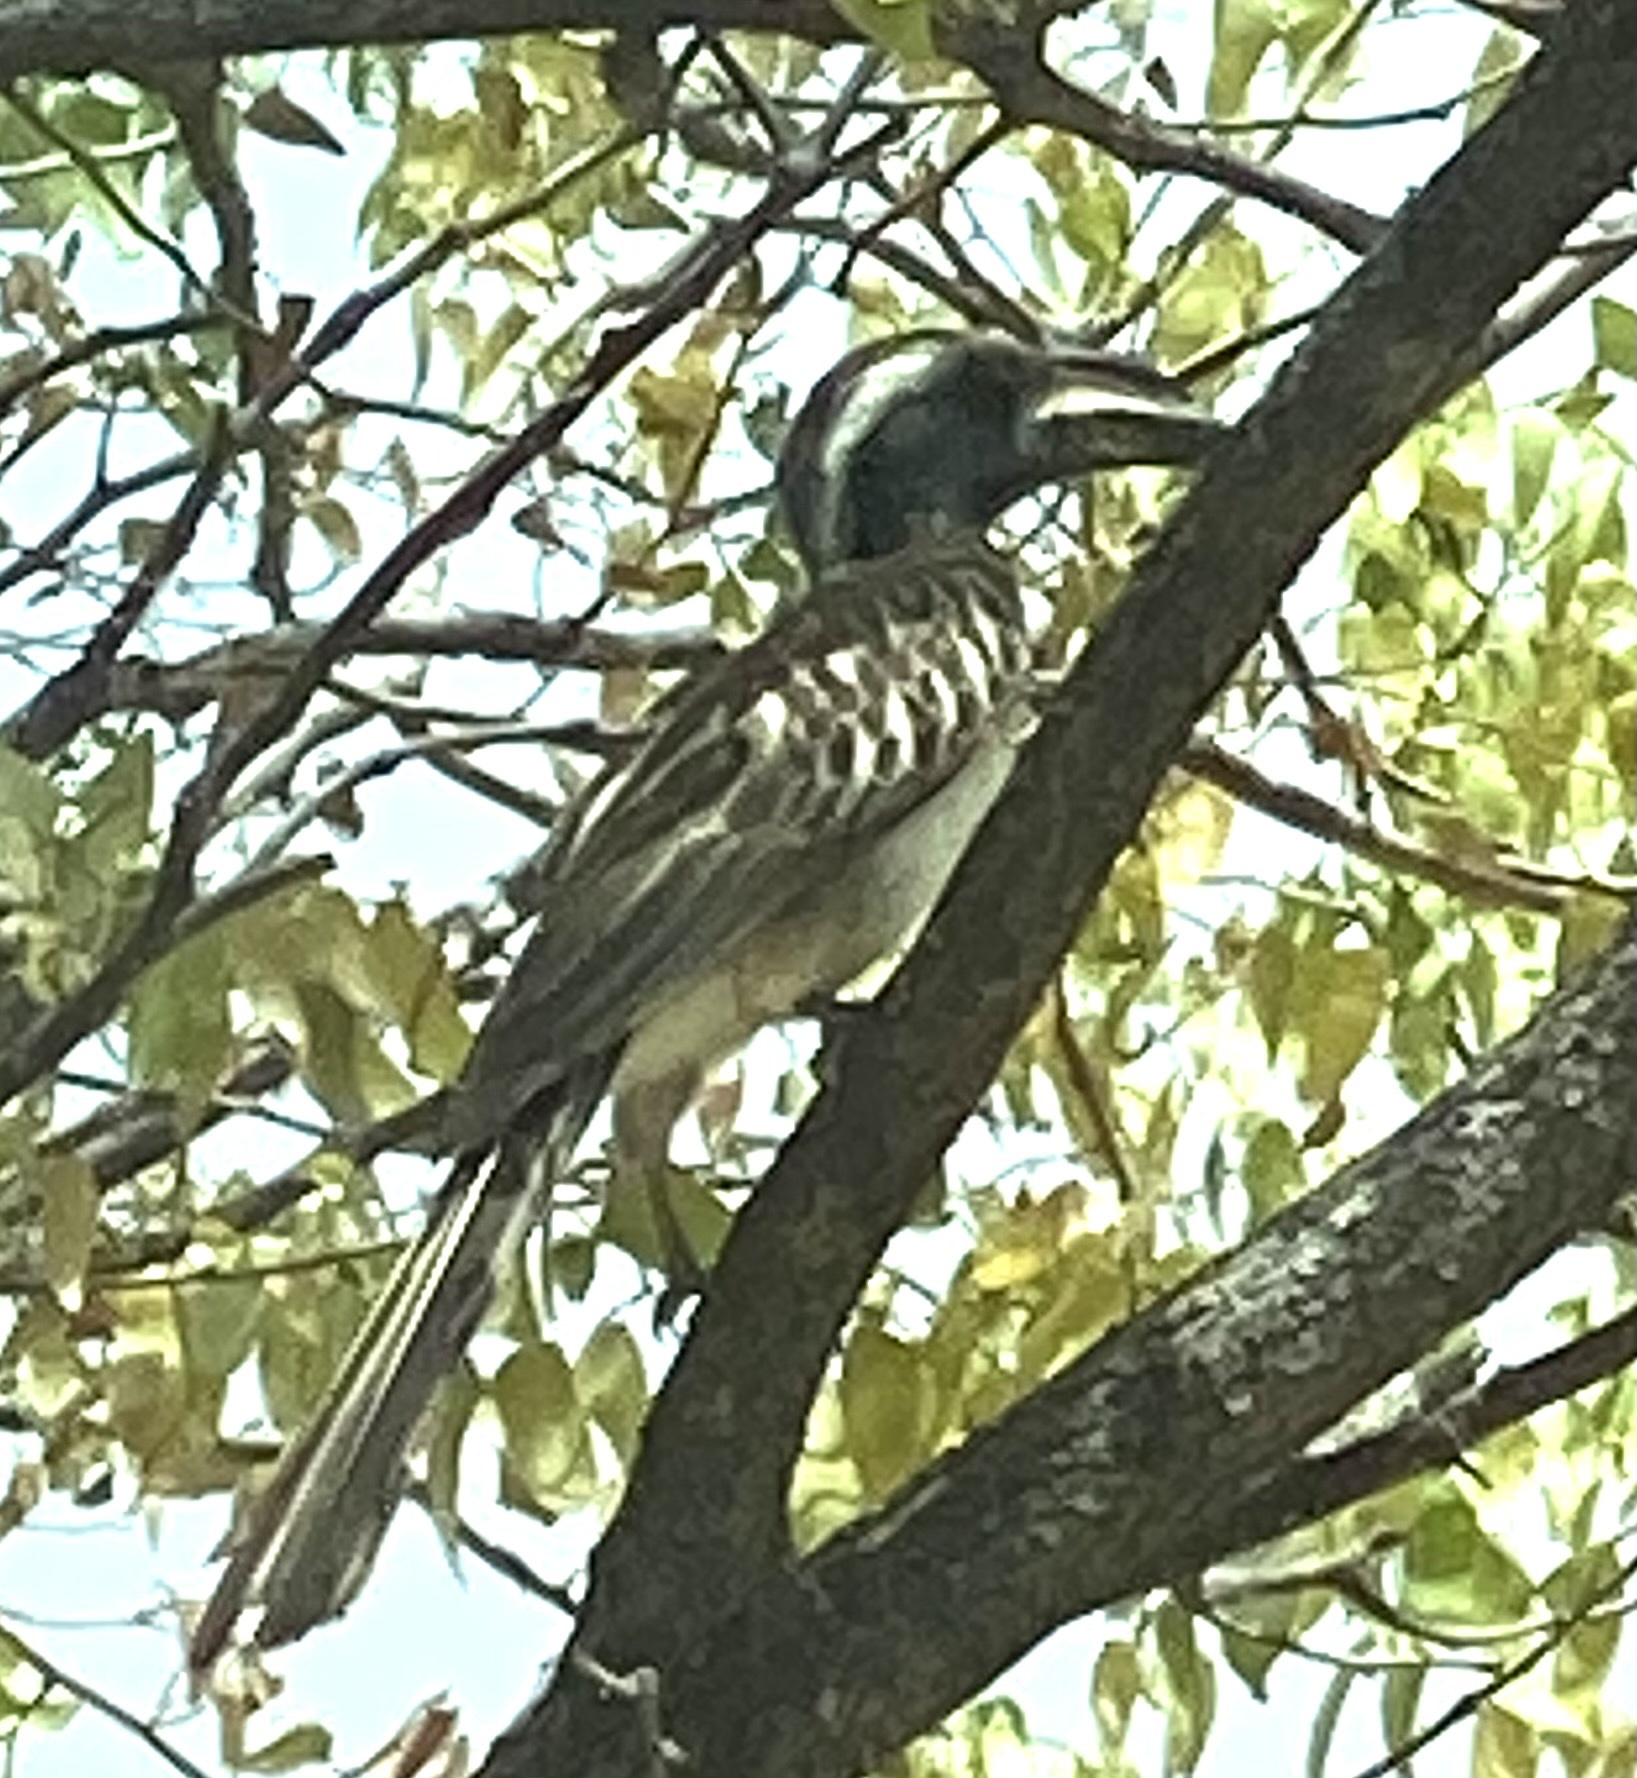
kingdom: Animalia
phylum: Chordata
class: Aves
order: Bucerotiformes
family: Bucerotidae
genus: Lophoceros
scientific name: Lophoceros nasutus
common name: African grey hornbill
